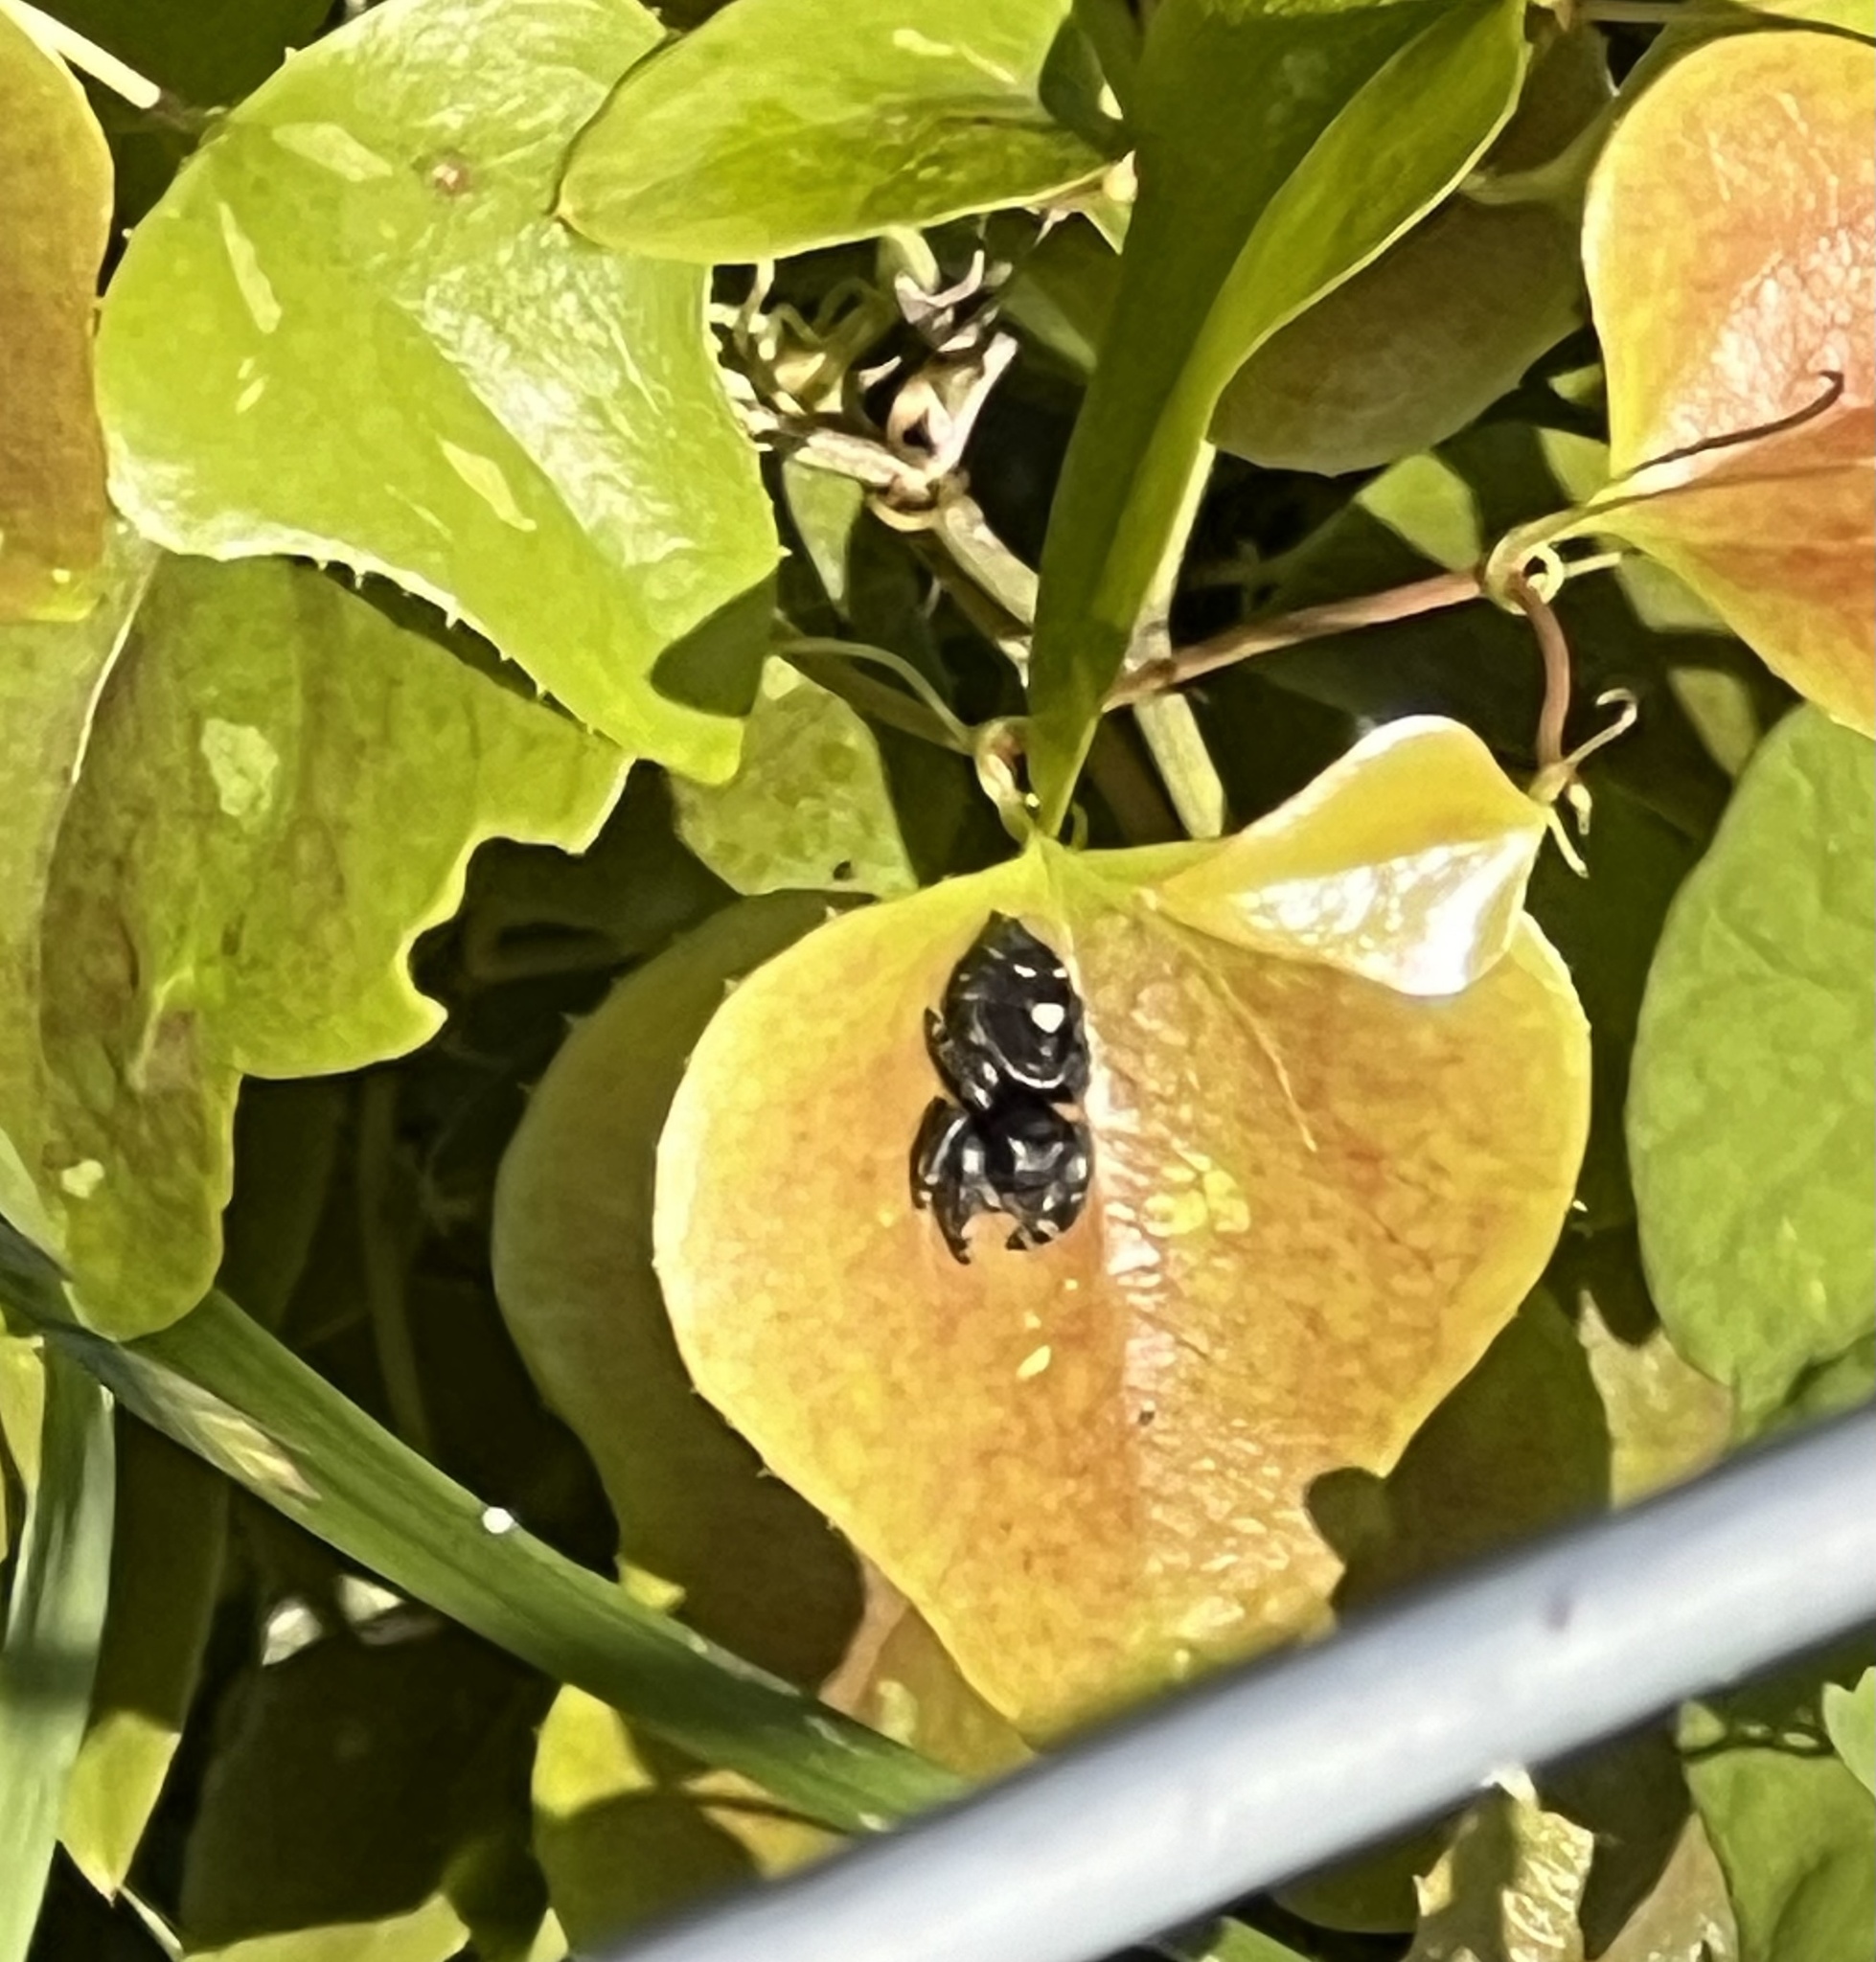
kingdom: Animalia
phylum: Arthropoda
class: Arachnida
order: Araneae
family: Salticidae
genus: Phidippus
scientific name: Phidippus audax
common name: Bold jumper
